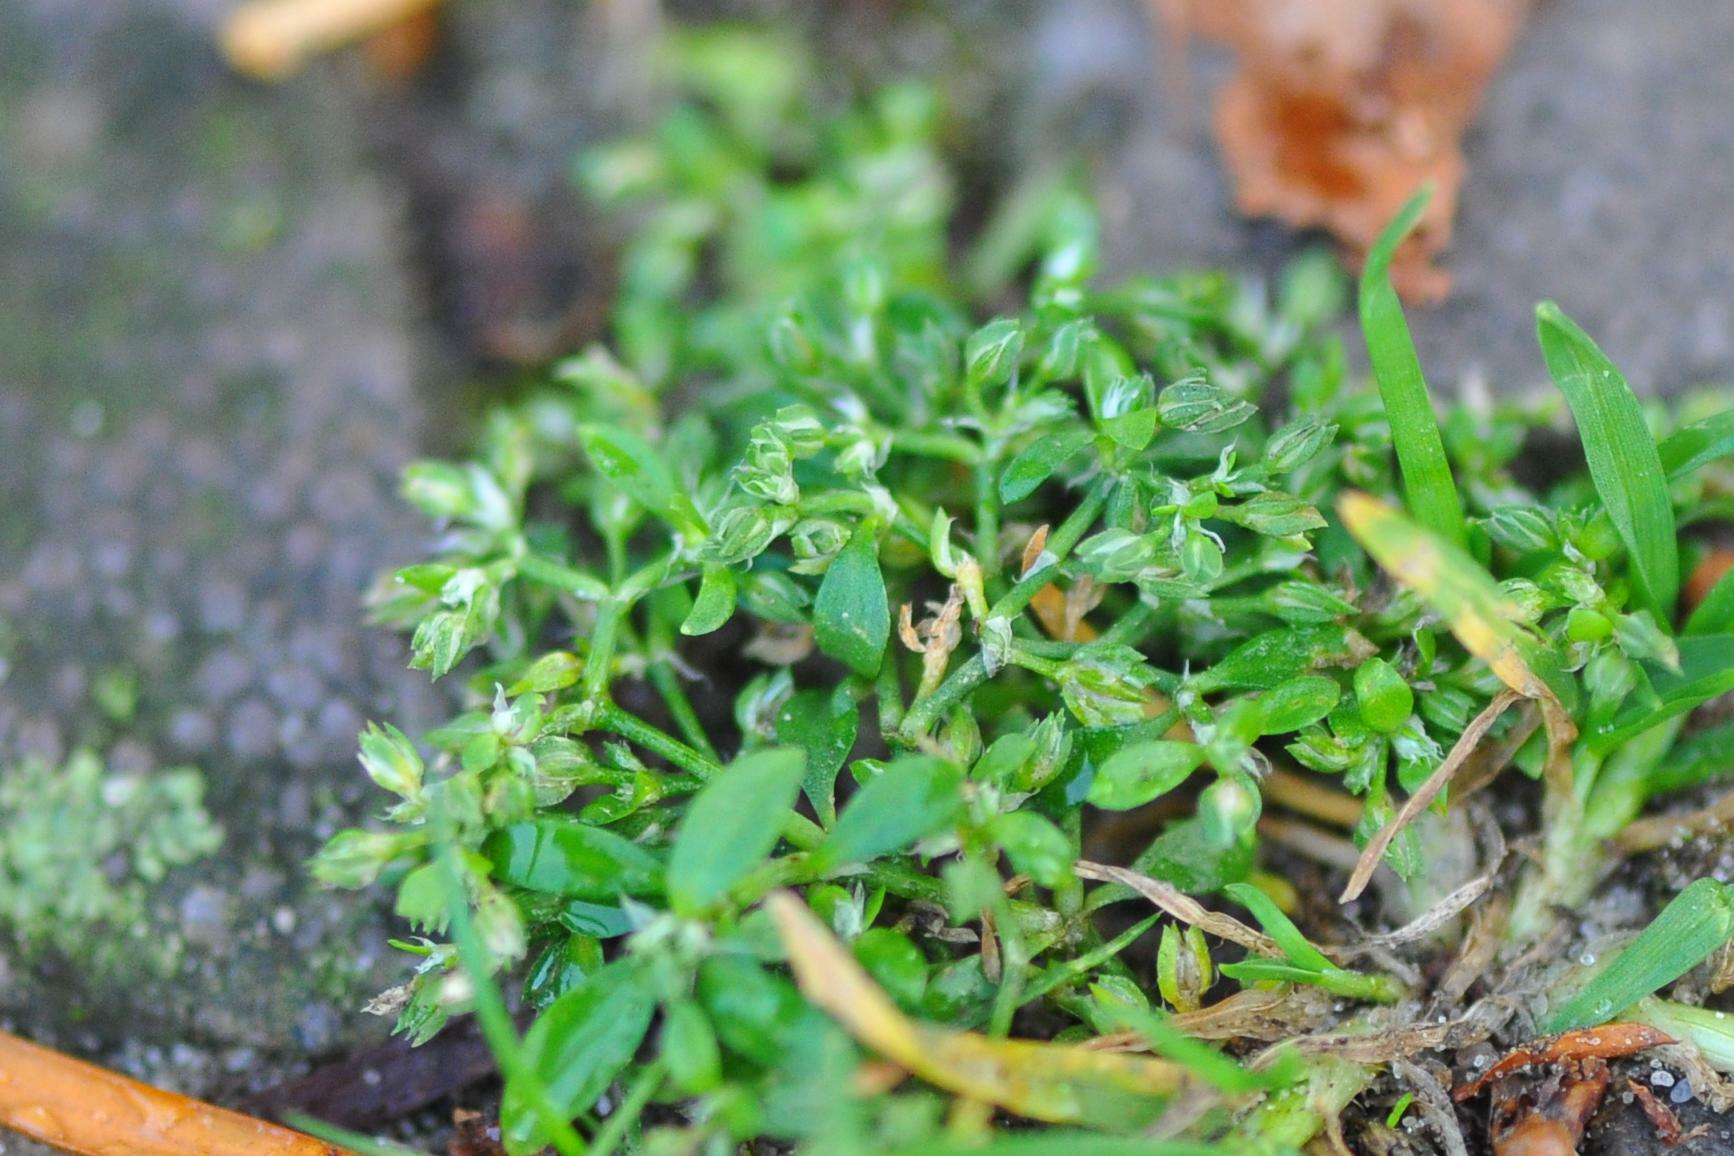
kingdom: Plantae
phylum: Tracheophyta
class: Magnoliopsida
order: Caryophyllales
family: Caryophyllaceae
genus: Polycarpon
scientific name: Polycarpon tetraphyllum
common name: Four-leaved all-seed
